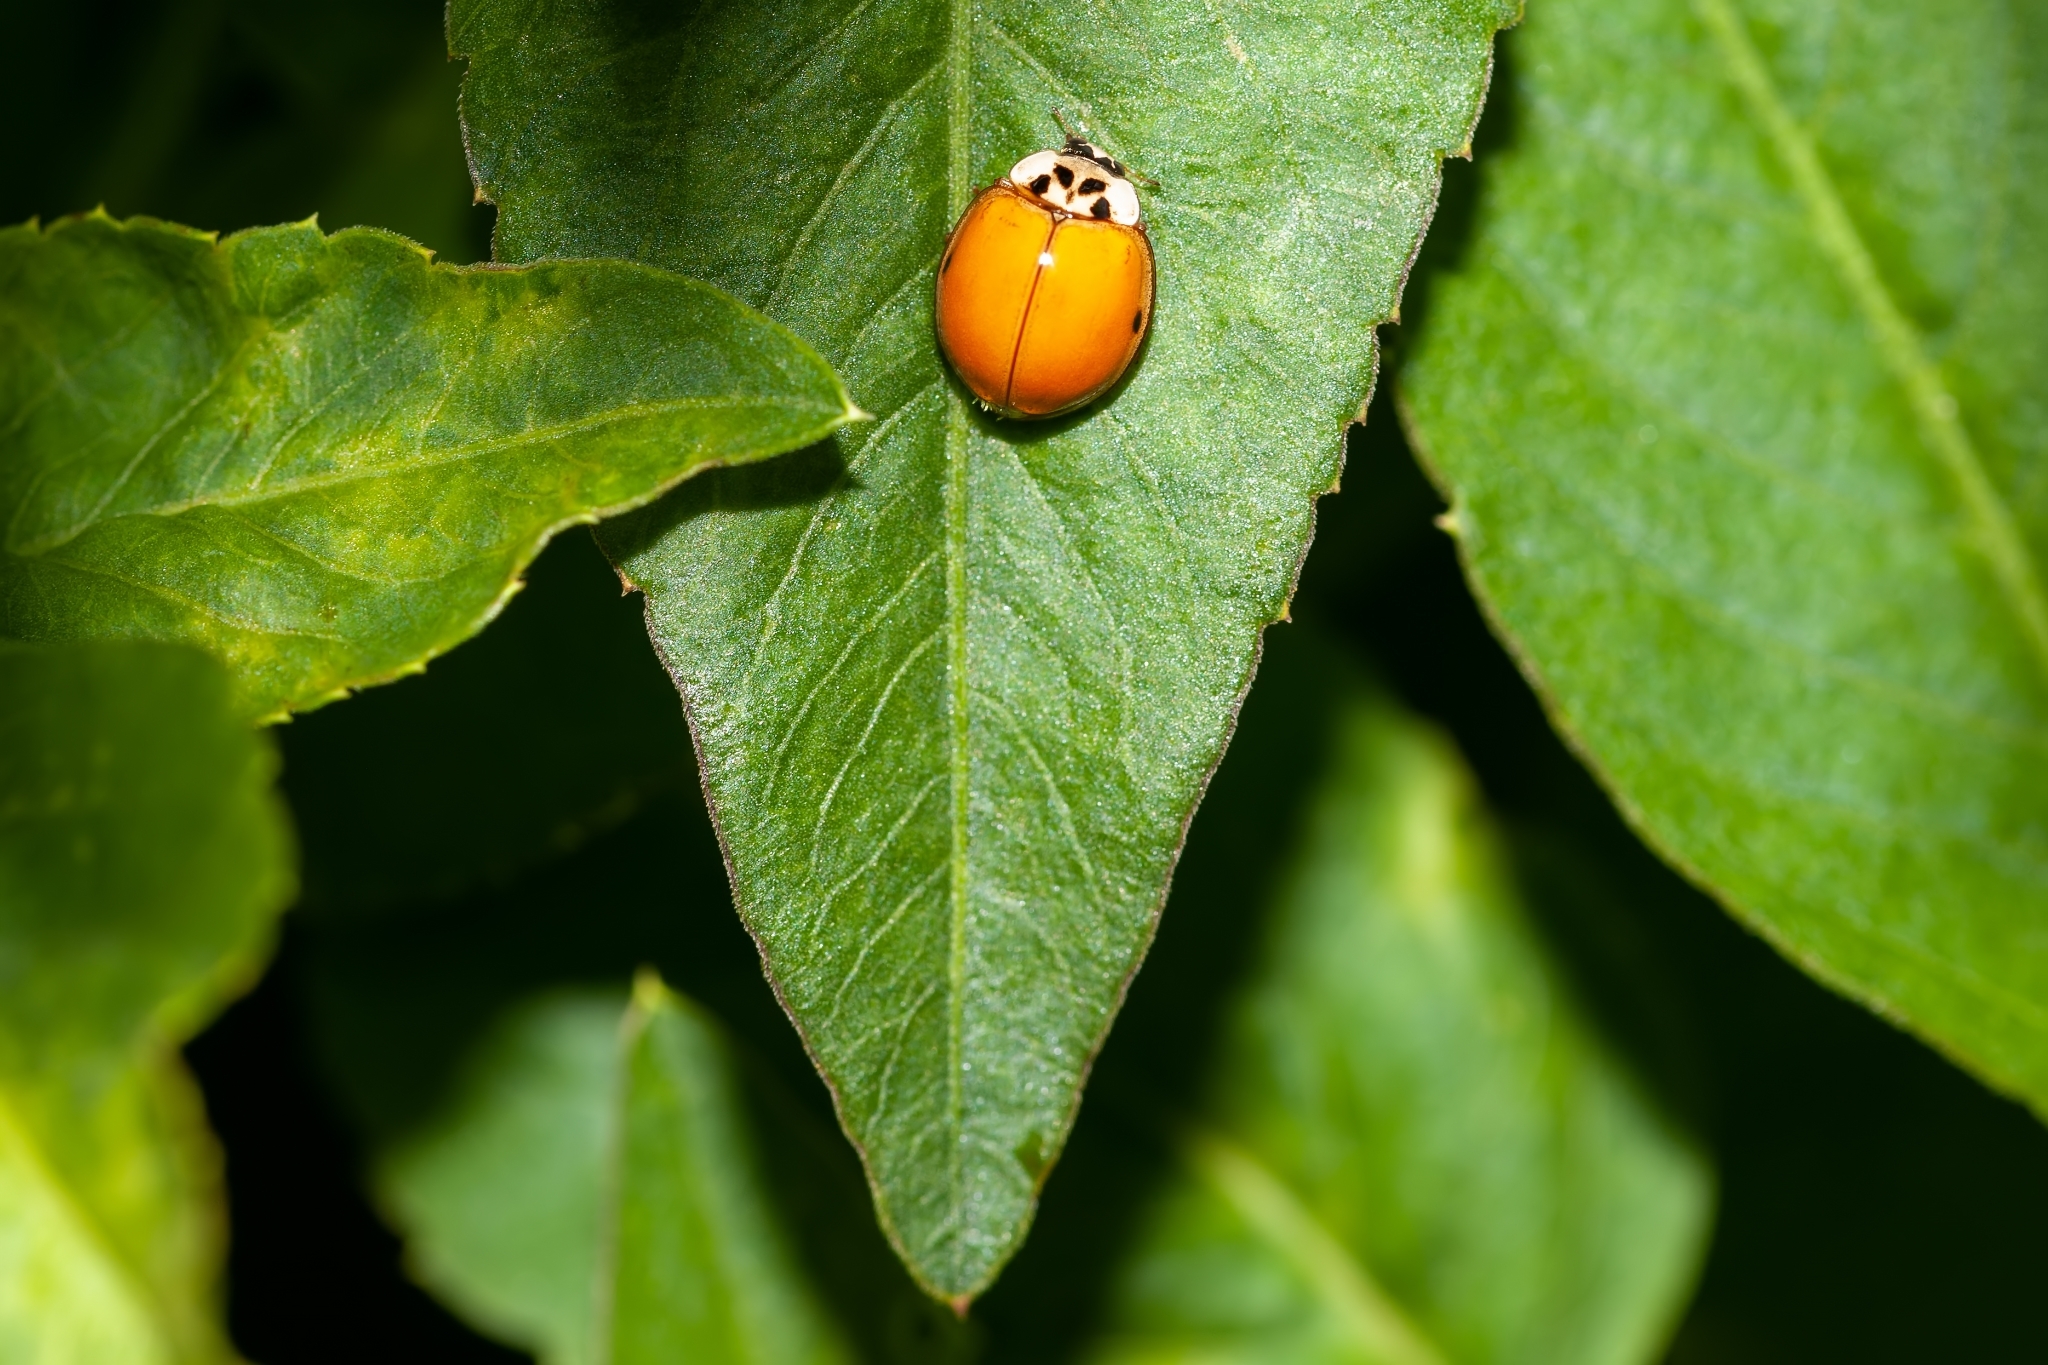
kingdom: Animalia
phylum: Arthropoda
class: Insecta
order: Coleoptera
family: Coccinellidae
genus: Harmonia
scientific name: Harmonia axyridis
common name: Harlequin ladybird
